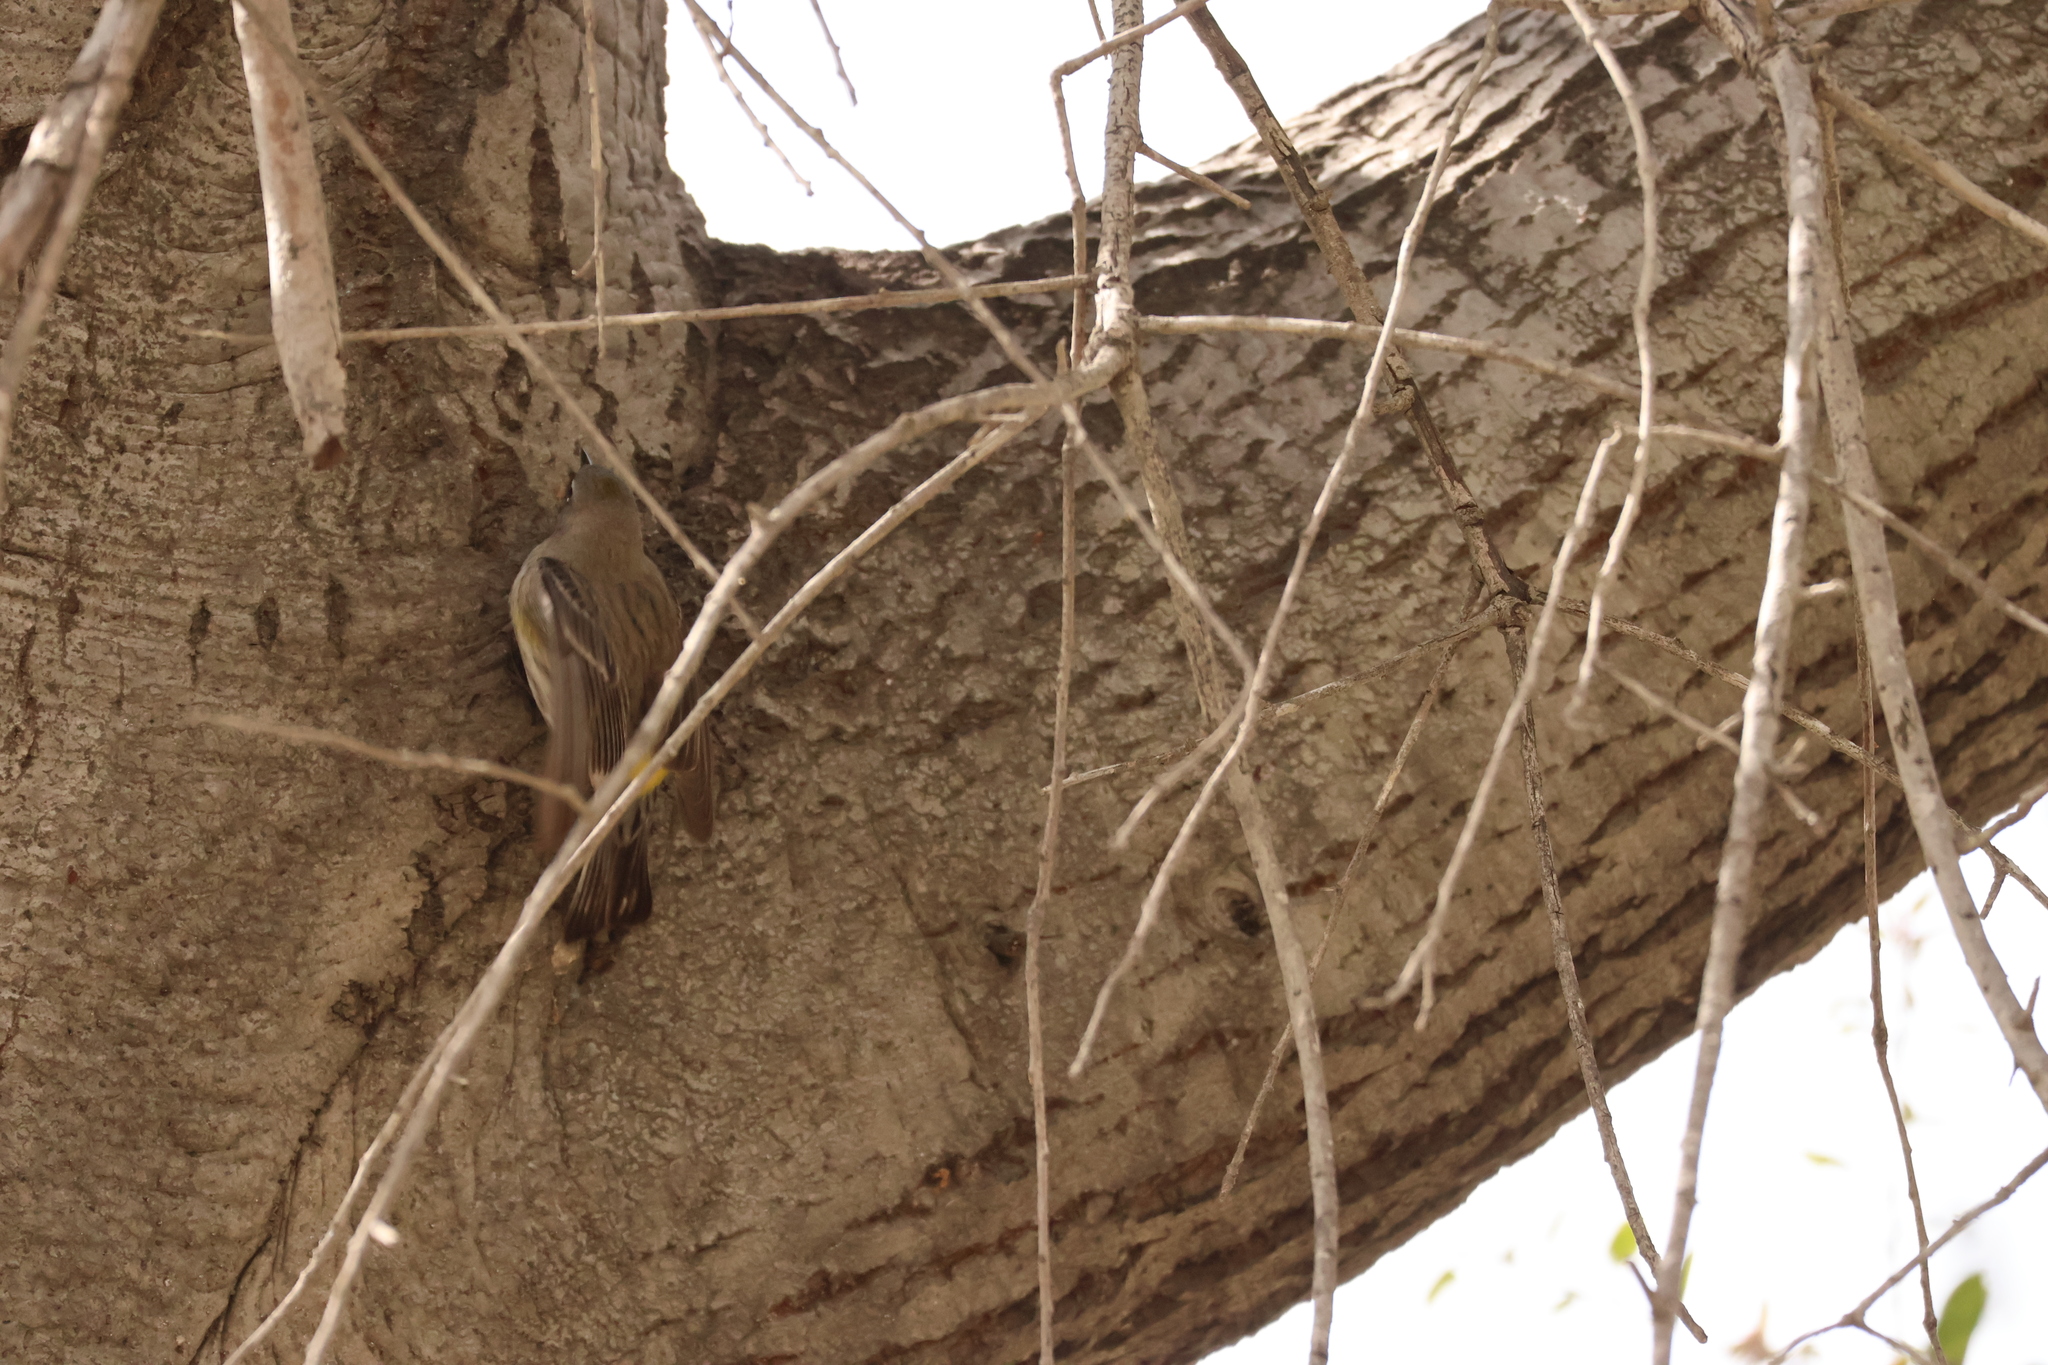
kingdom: Animalia
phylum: Chordata
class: Aves
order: Passeriformes
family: Parulidae
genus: Setophaga
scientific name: Setophaga coronata
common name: Myrtle warbler
